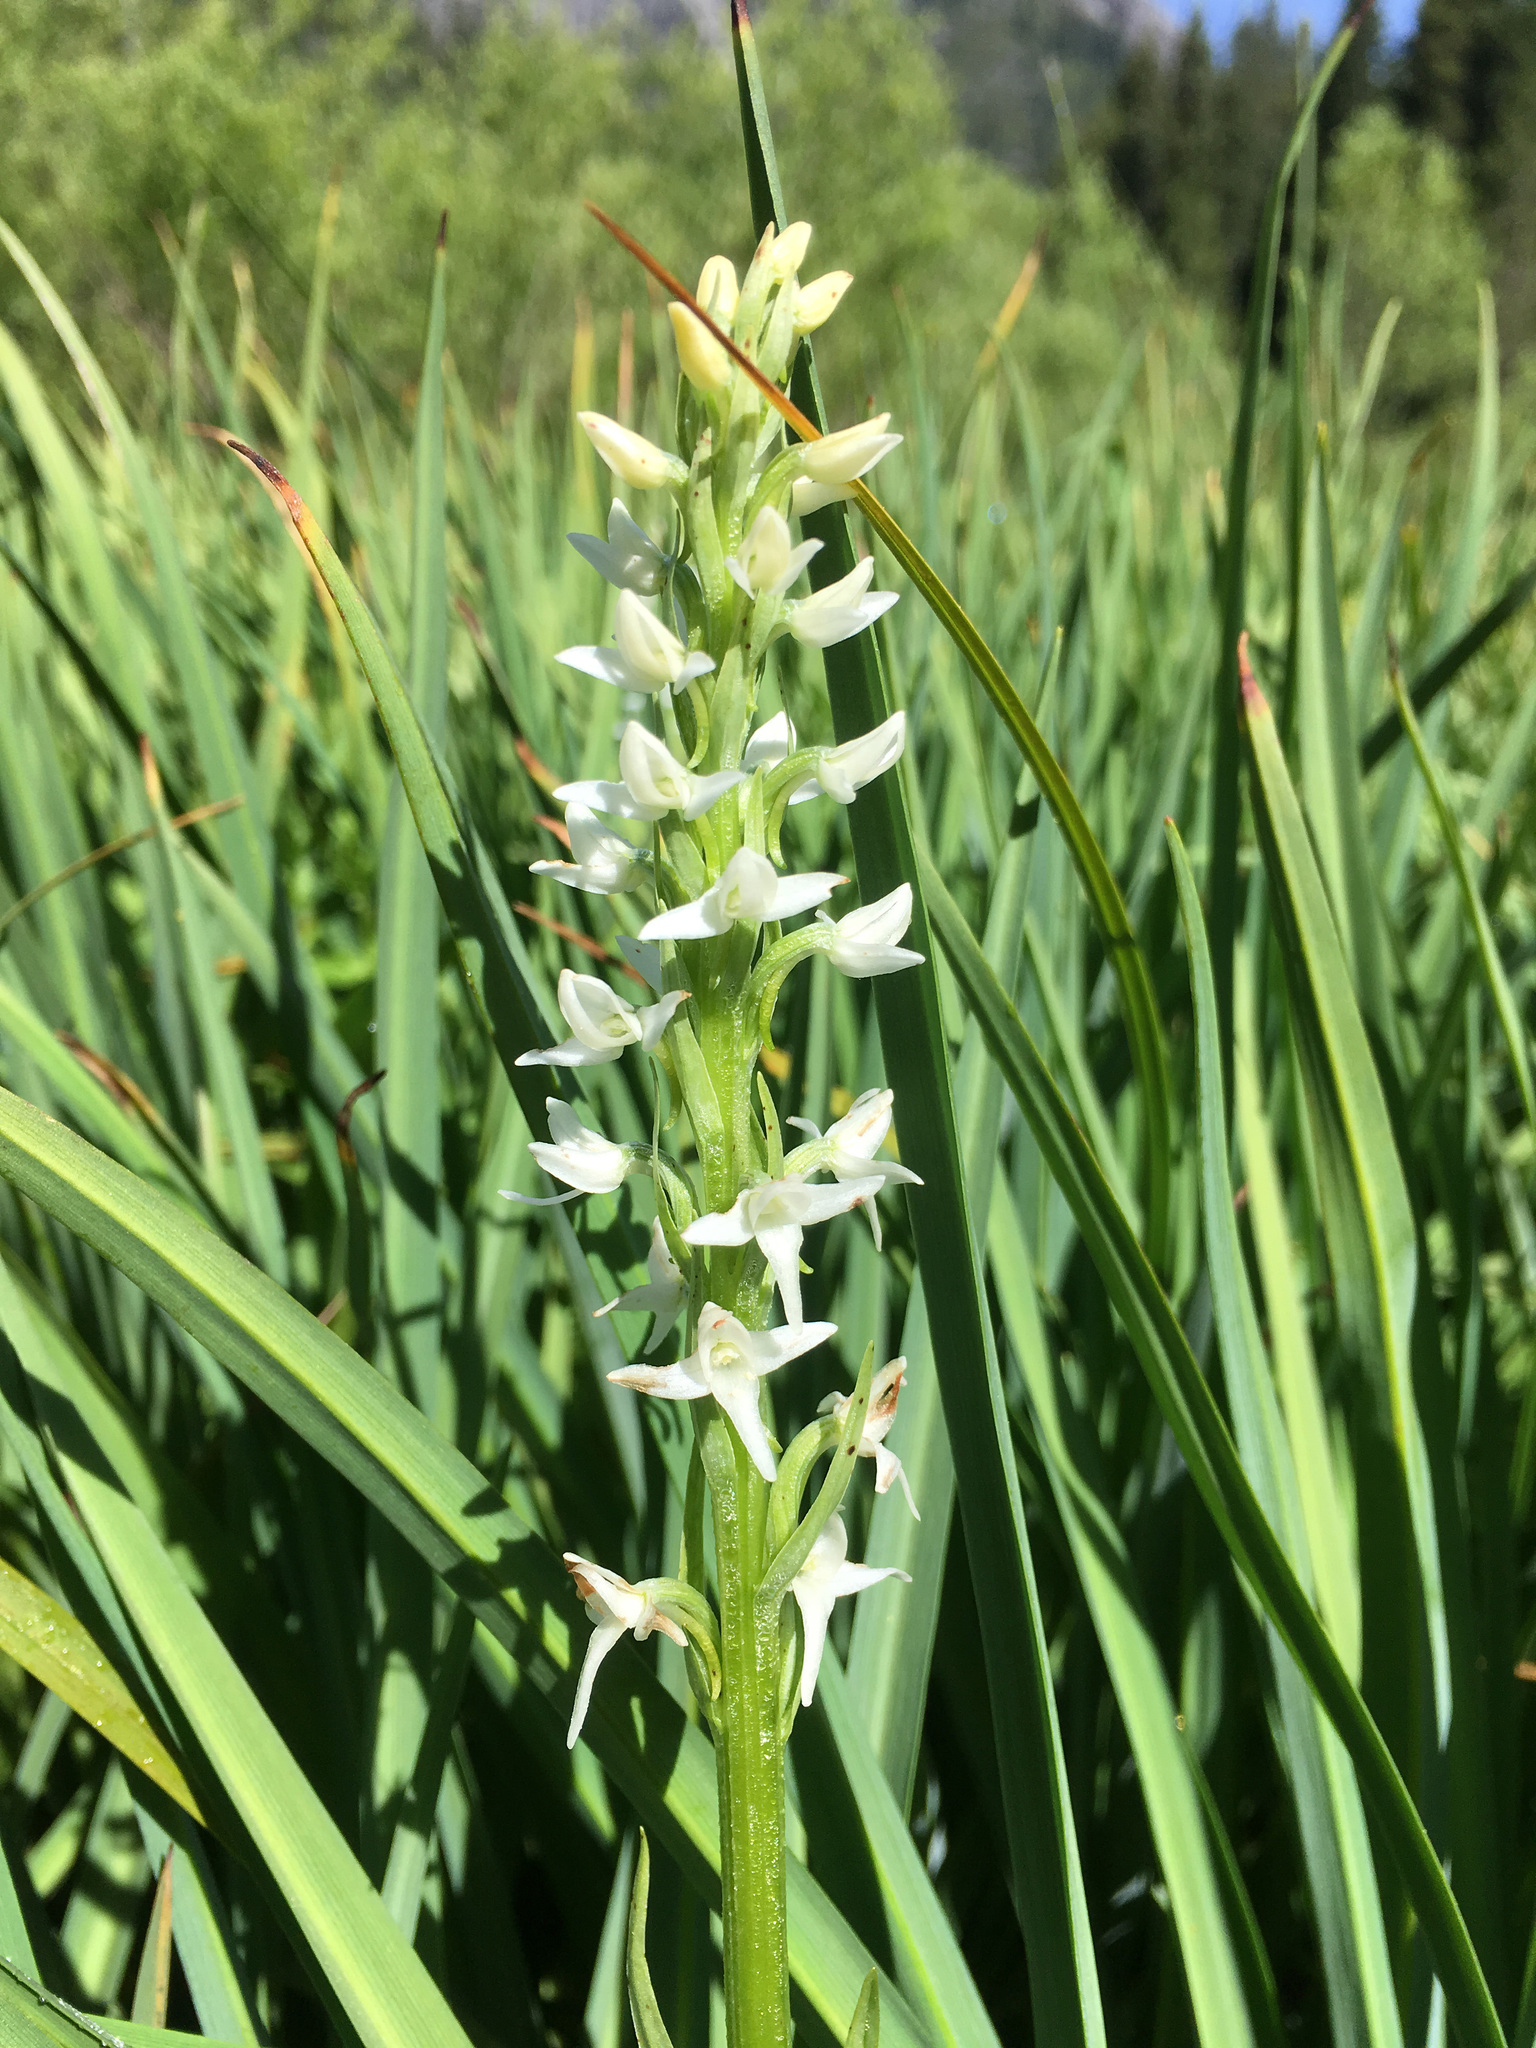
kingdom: Plantae
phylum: Tracheophyta
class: Liliopsida
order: Asparagales
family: Orchidaceae
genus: Platanthera
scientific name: Platanthera dilatata
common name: Bog candles
